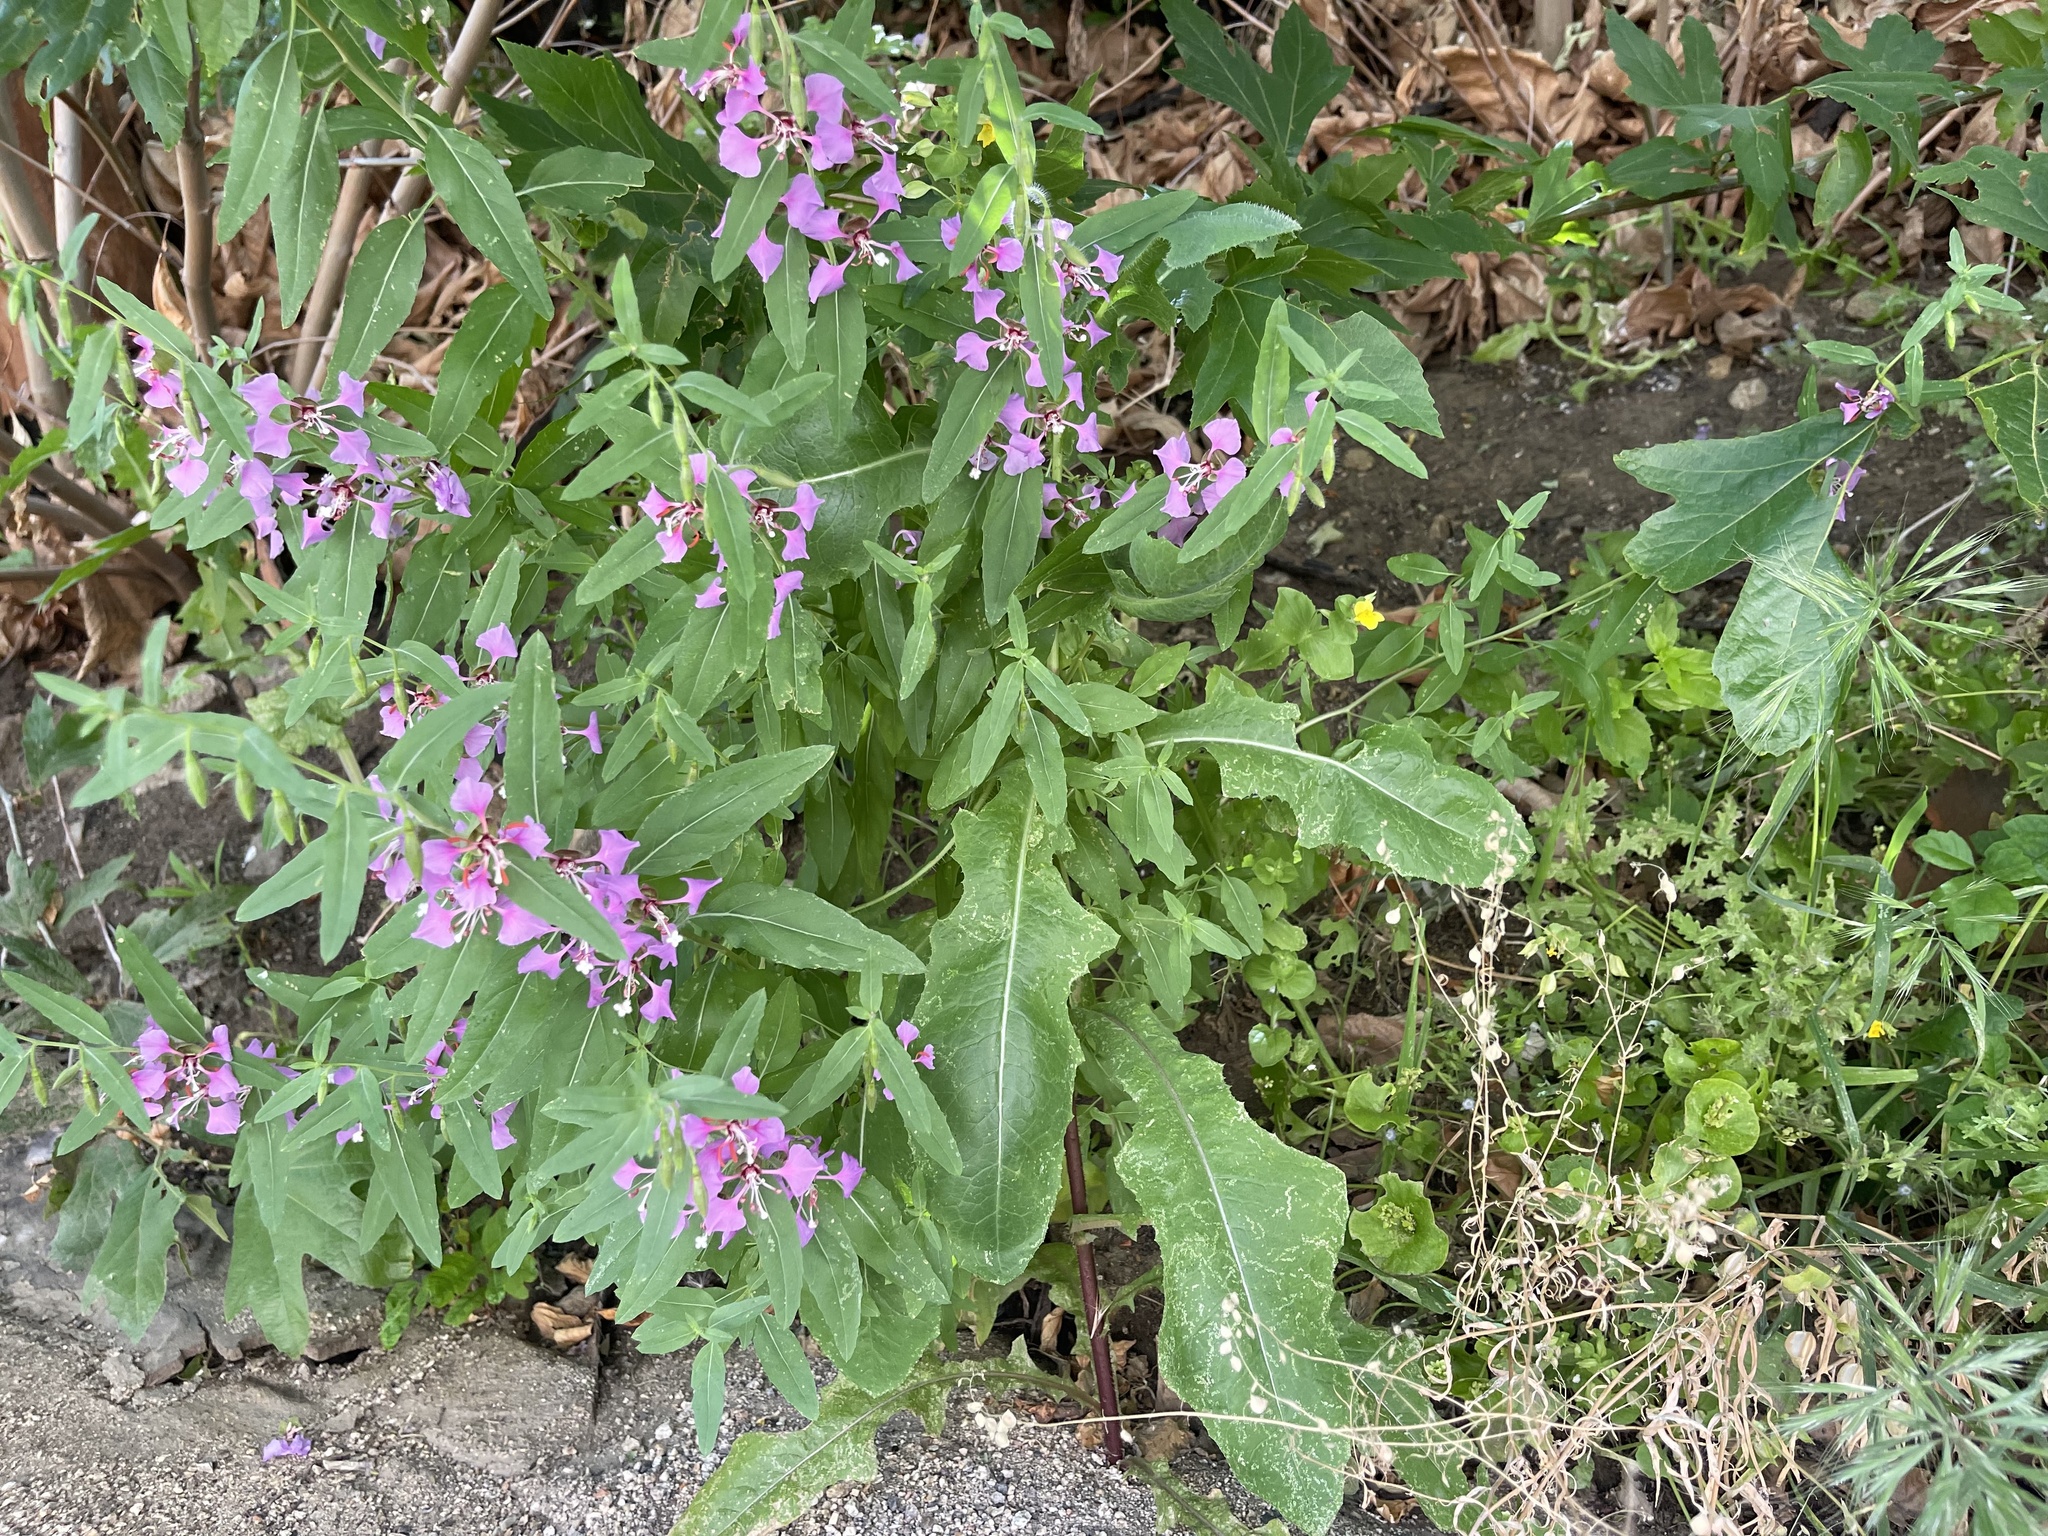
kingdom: Plantae
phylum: Tracheophyta
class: Magnoliopsida
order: Myrtales
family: Onagraceae
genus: Clarkia
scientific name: Clarkia unguiculata
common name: Clarkia
